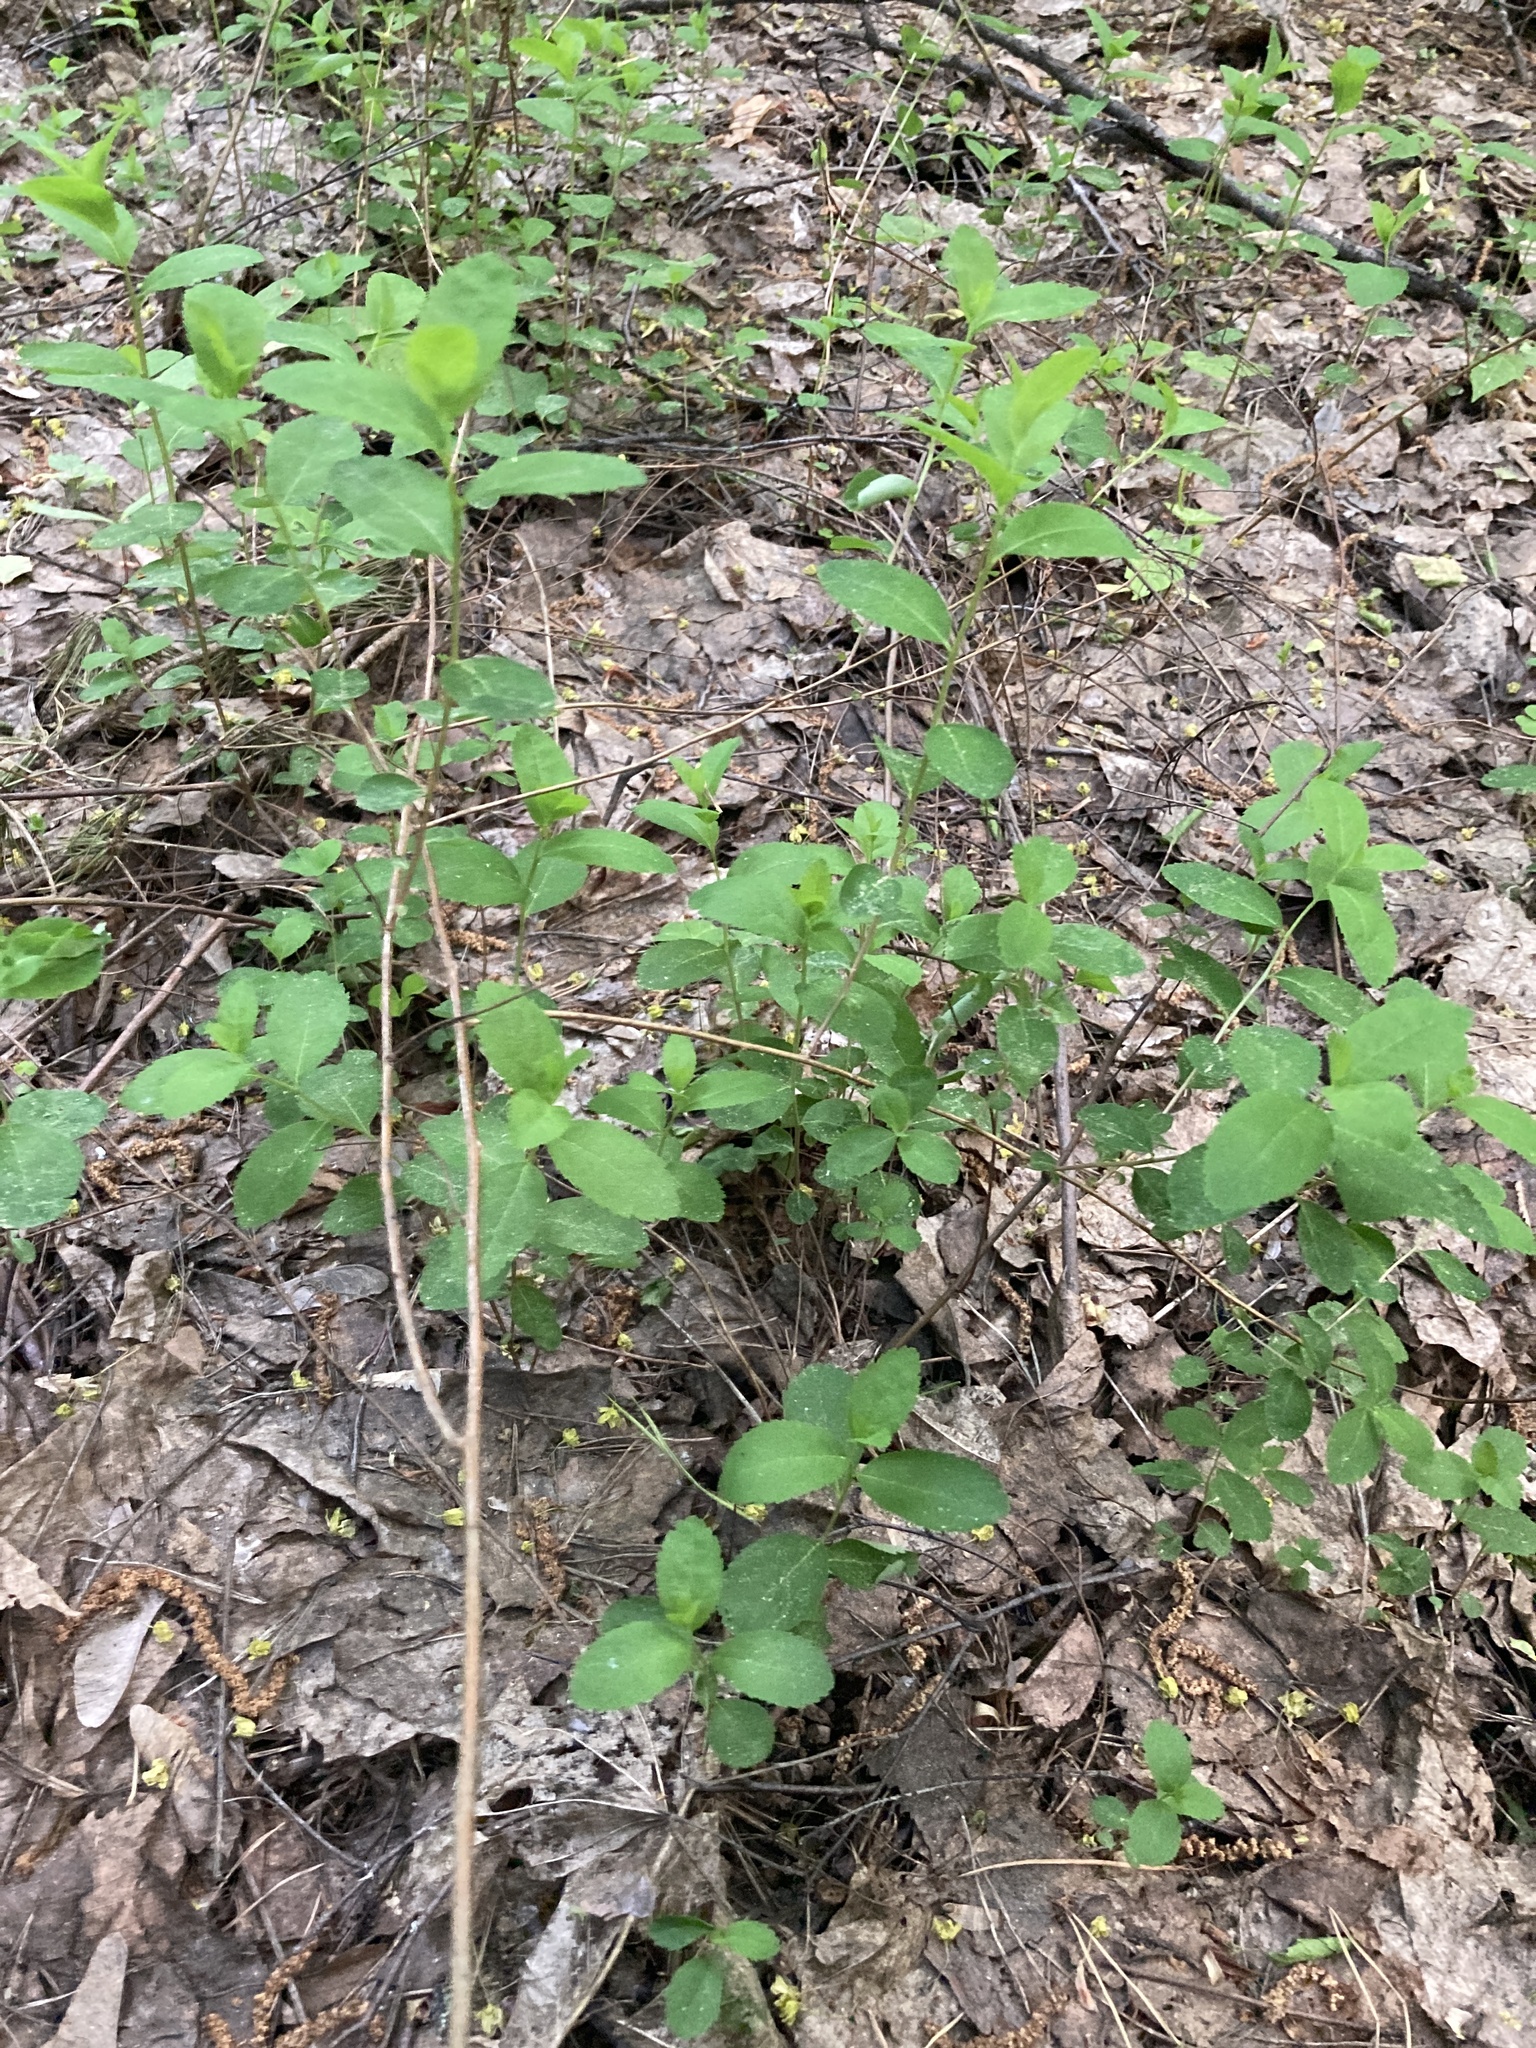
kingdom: Plantae
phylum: Tracheophyta
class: Magnoliopsida
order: Dipsacales
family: Caprifoliaceae
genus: Symphoricarpos
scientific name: Symphoricarpos albus
